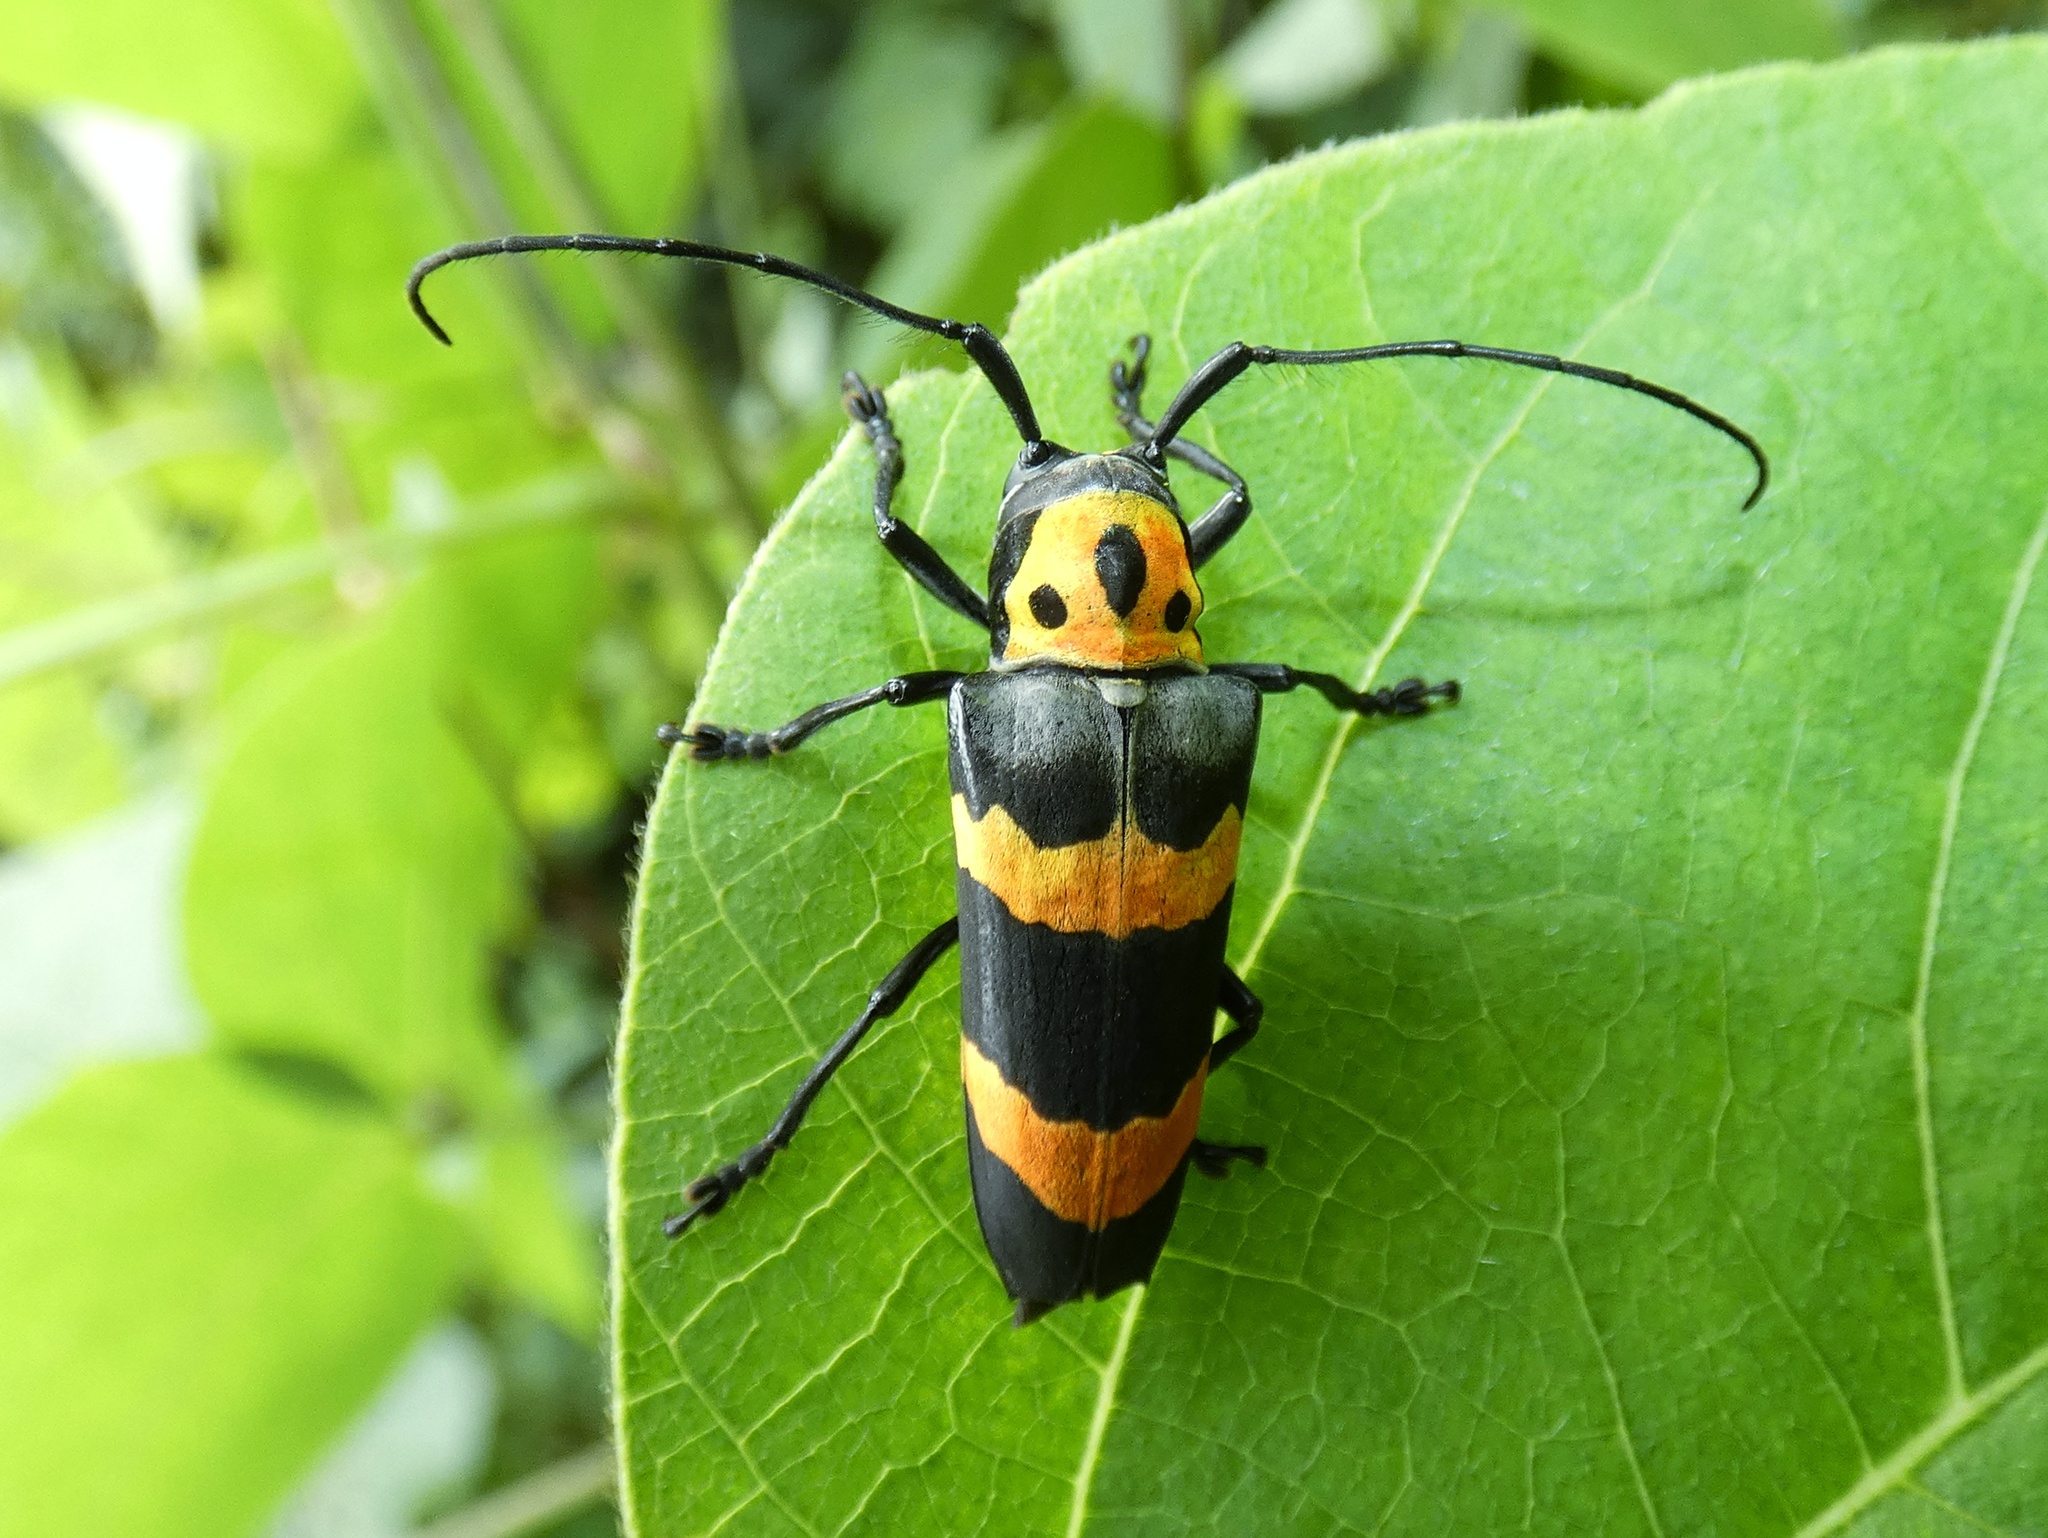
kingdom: Animalia
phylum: Arthropoda
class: Insecta
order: Coleoptera
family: Cerambycidae
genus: Oedudes
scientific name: Oedudes bifasciatus
